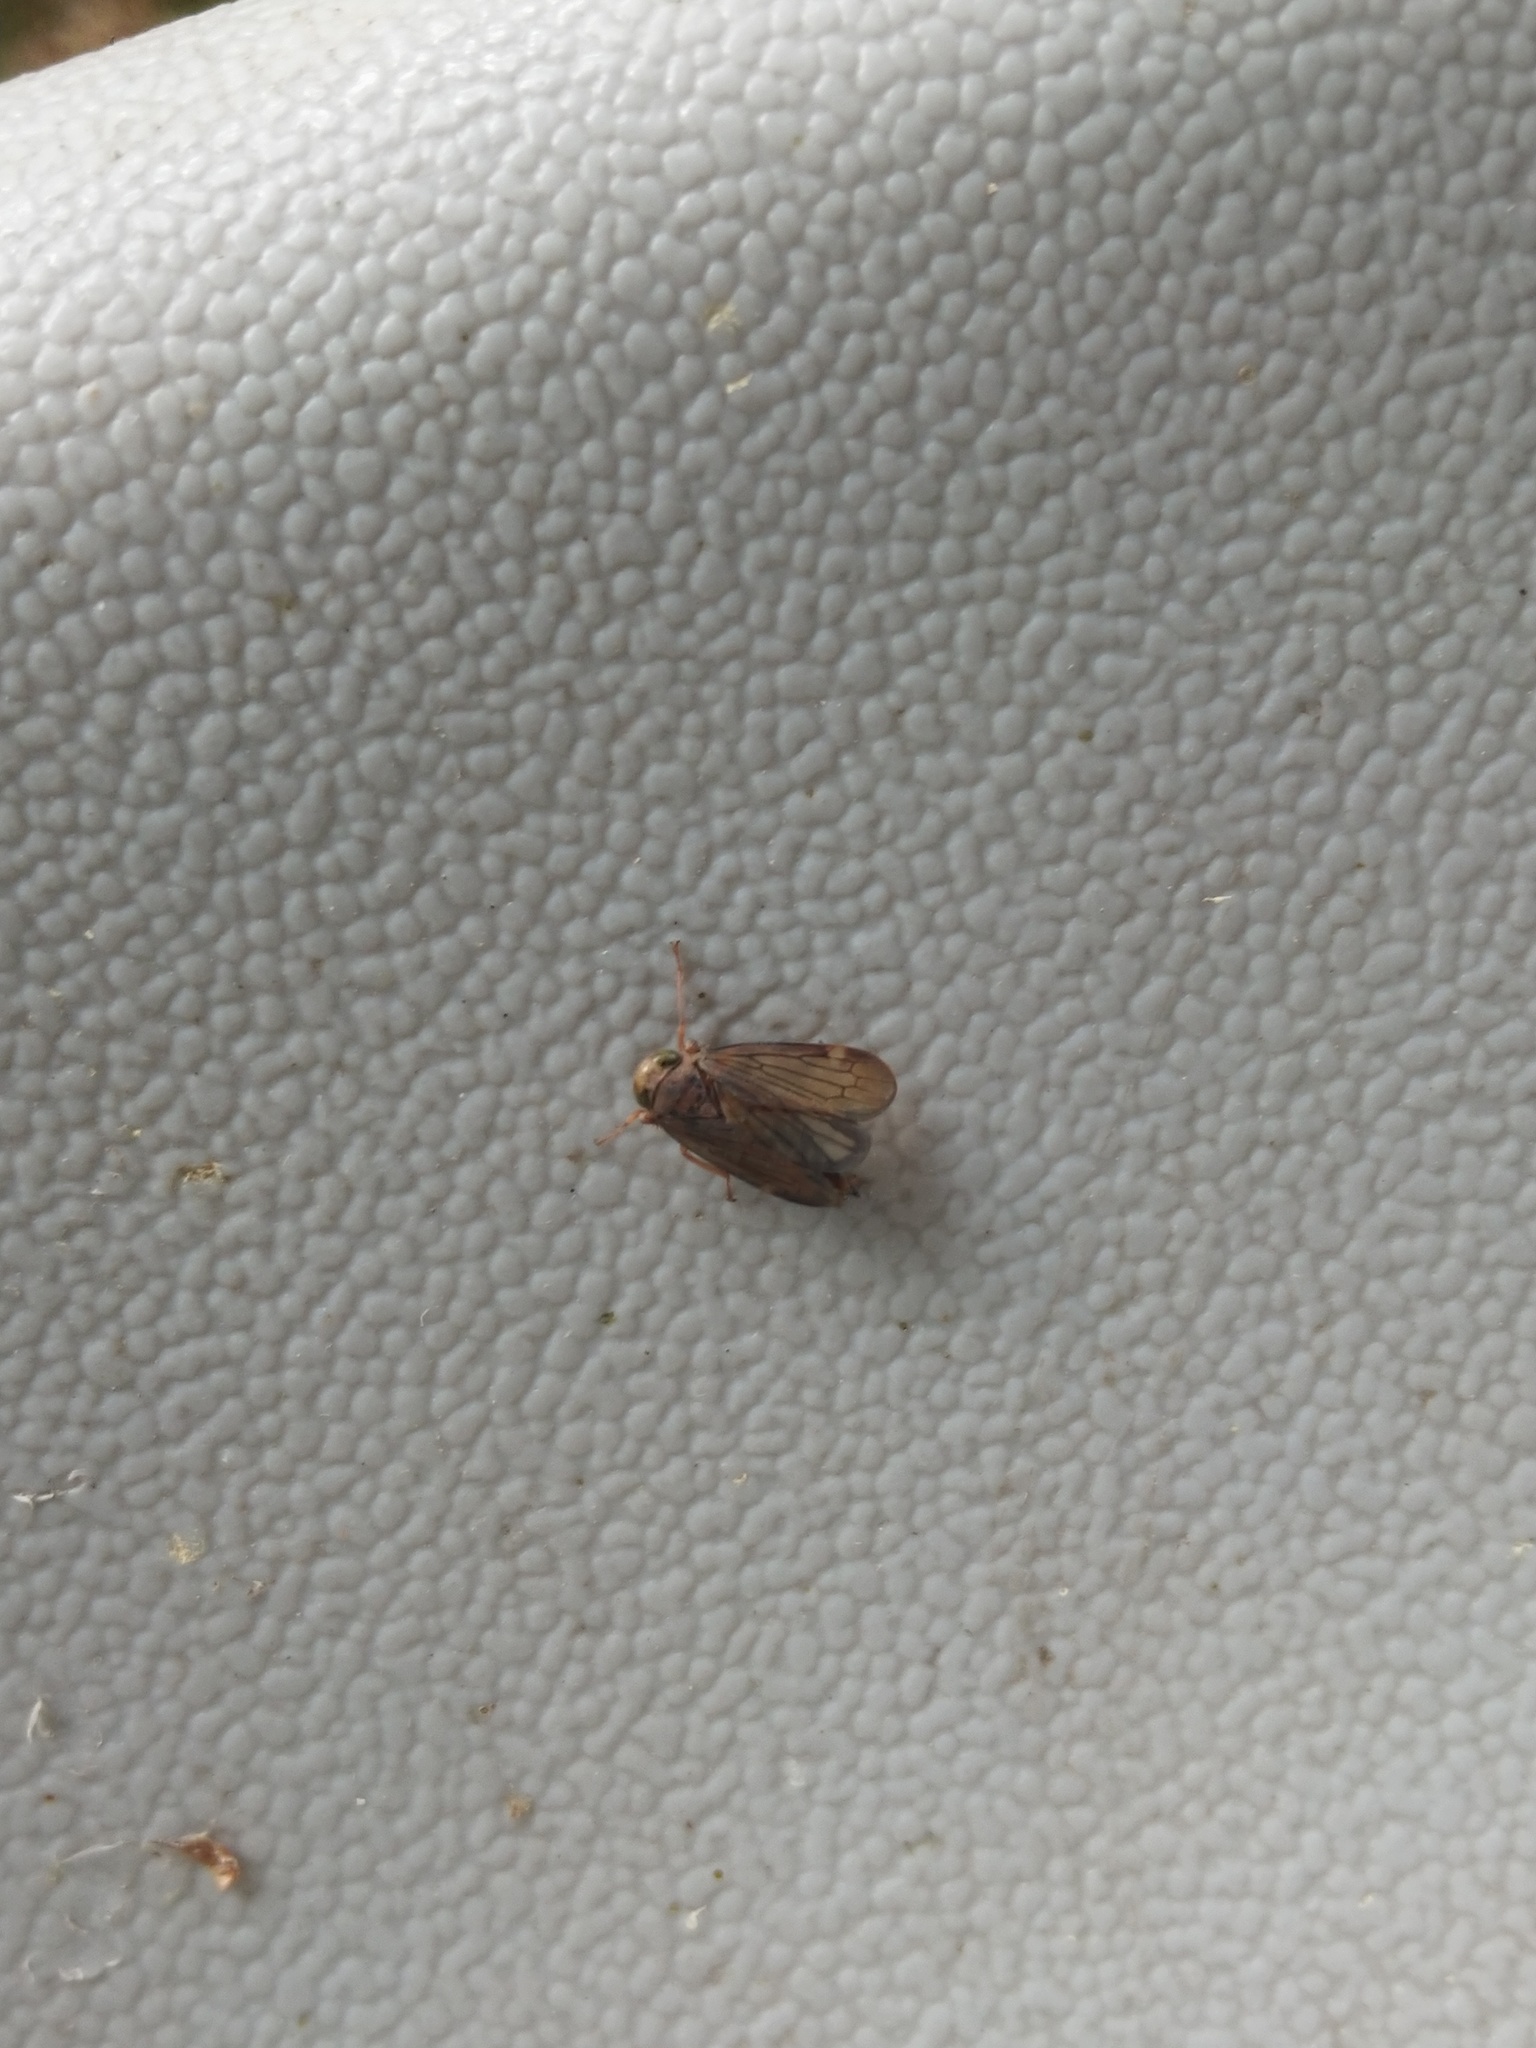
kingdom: Animalia
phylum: Arthropoda
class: Insecta
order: Hemiptera
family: Cicadellidae
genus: Jikradia
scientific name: Jikradia olitoria
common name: Coppery leafhopper
